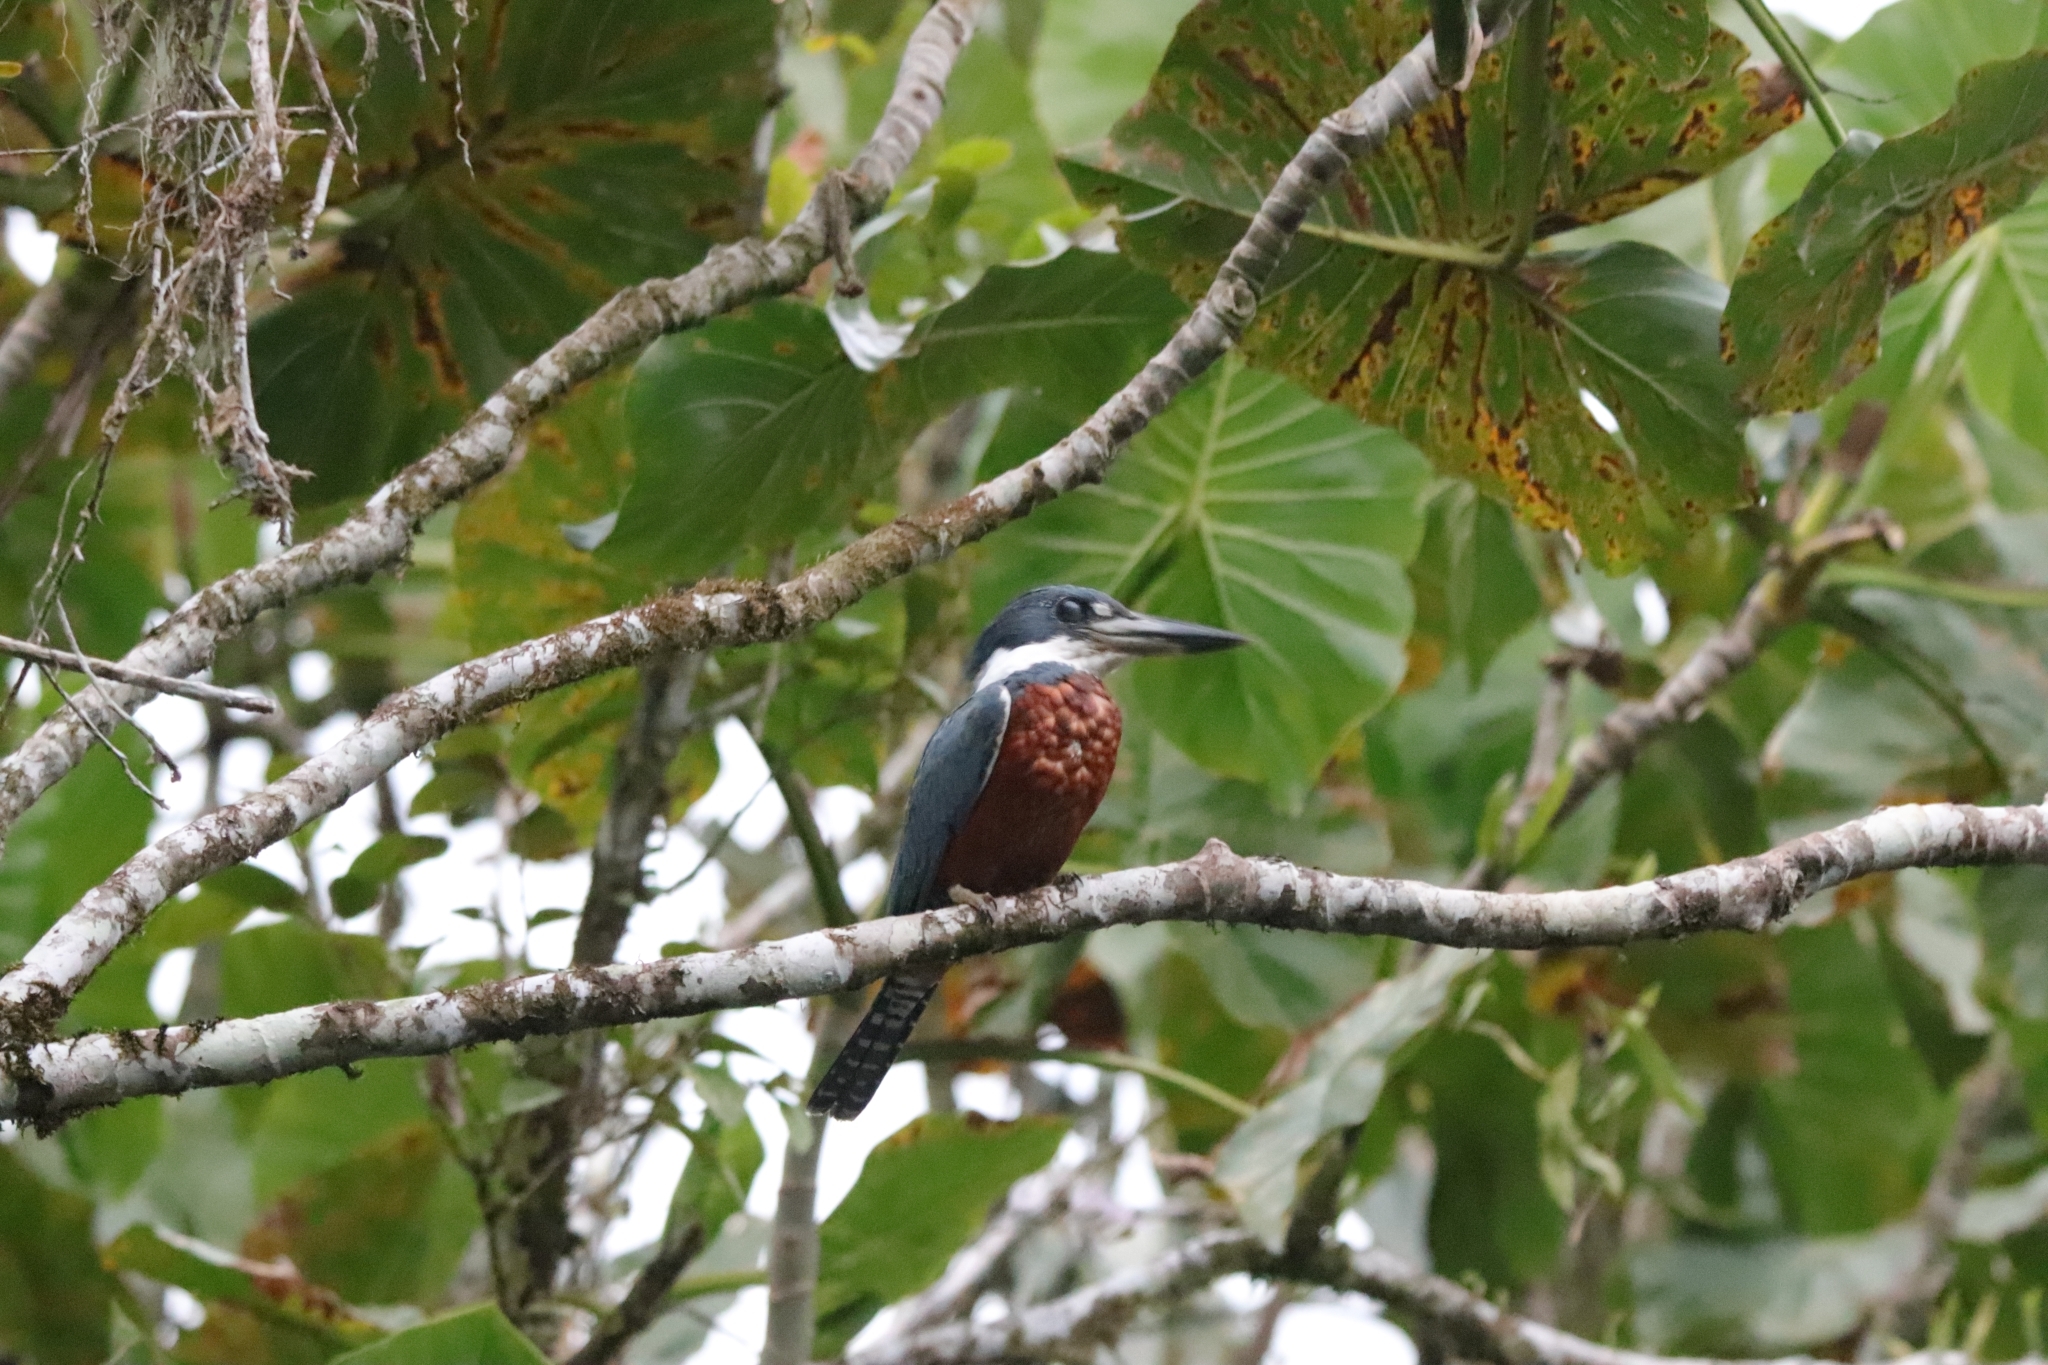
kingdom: Animalia
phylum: Chordata
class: Aves
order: Coraciiformes
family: Alcedinidae
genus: Megaceryle
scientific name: Megaceryle torquata
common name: Ringed kingfisher
